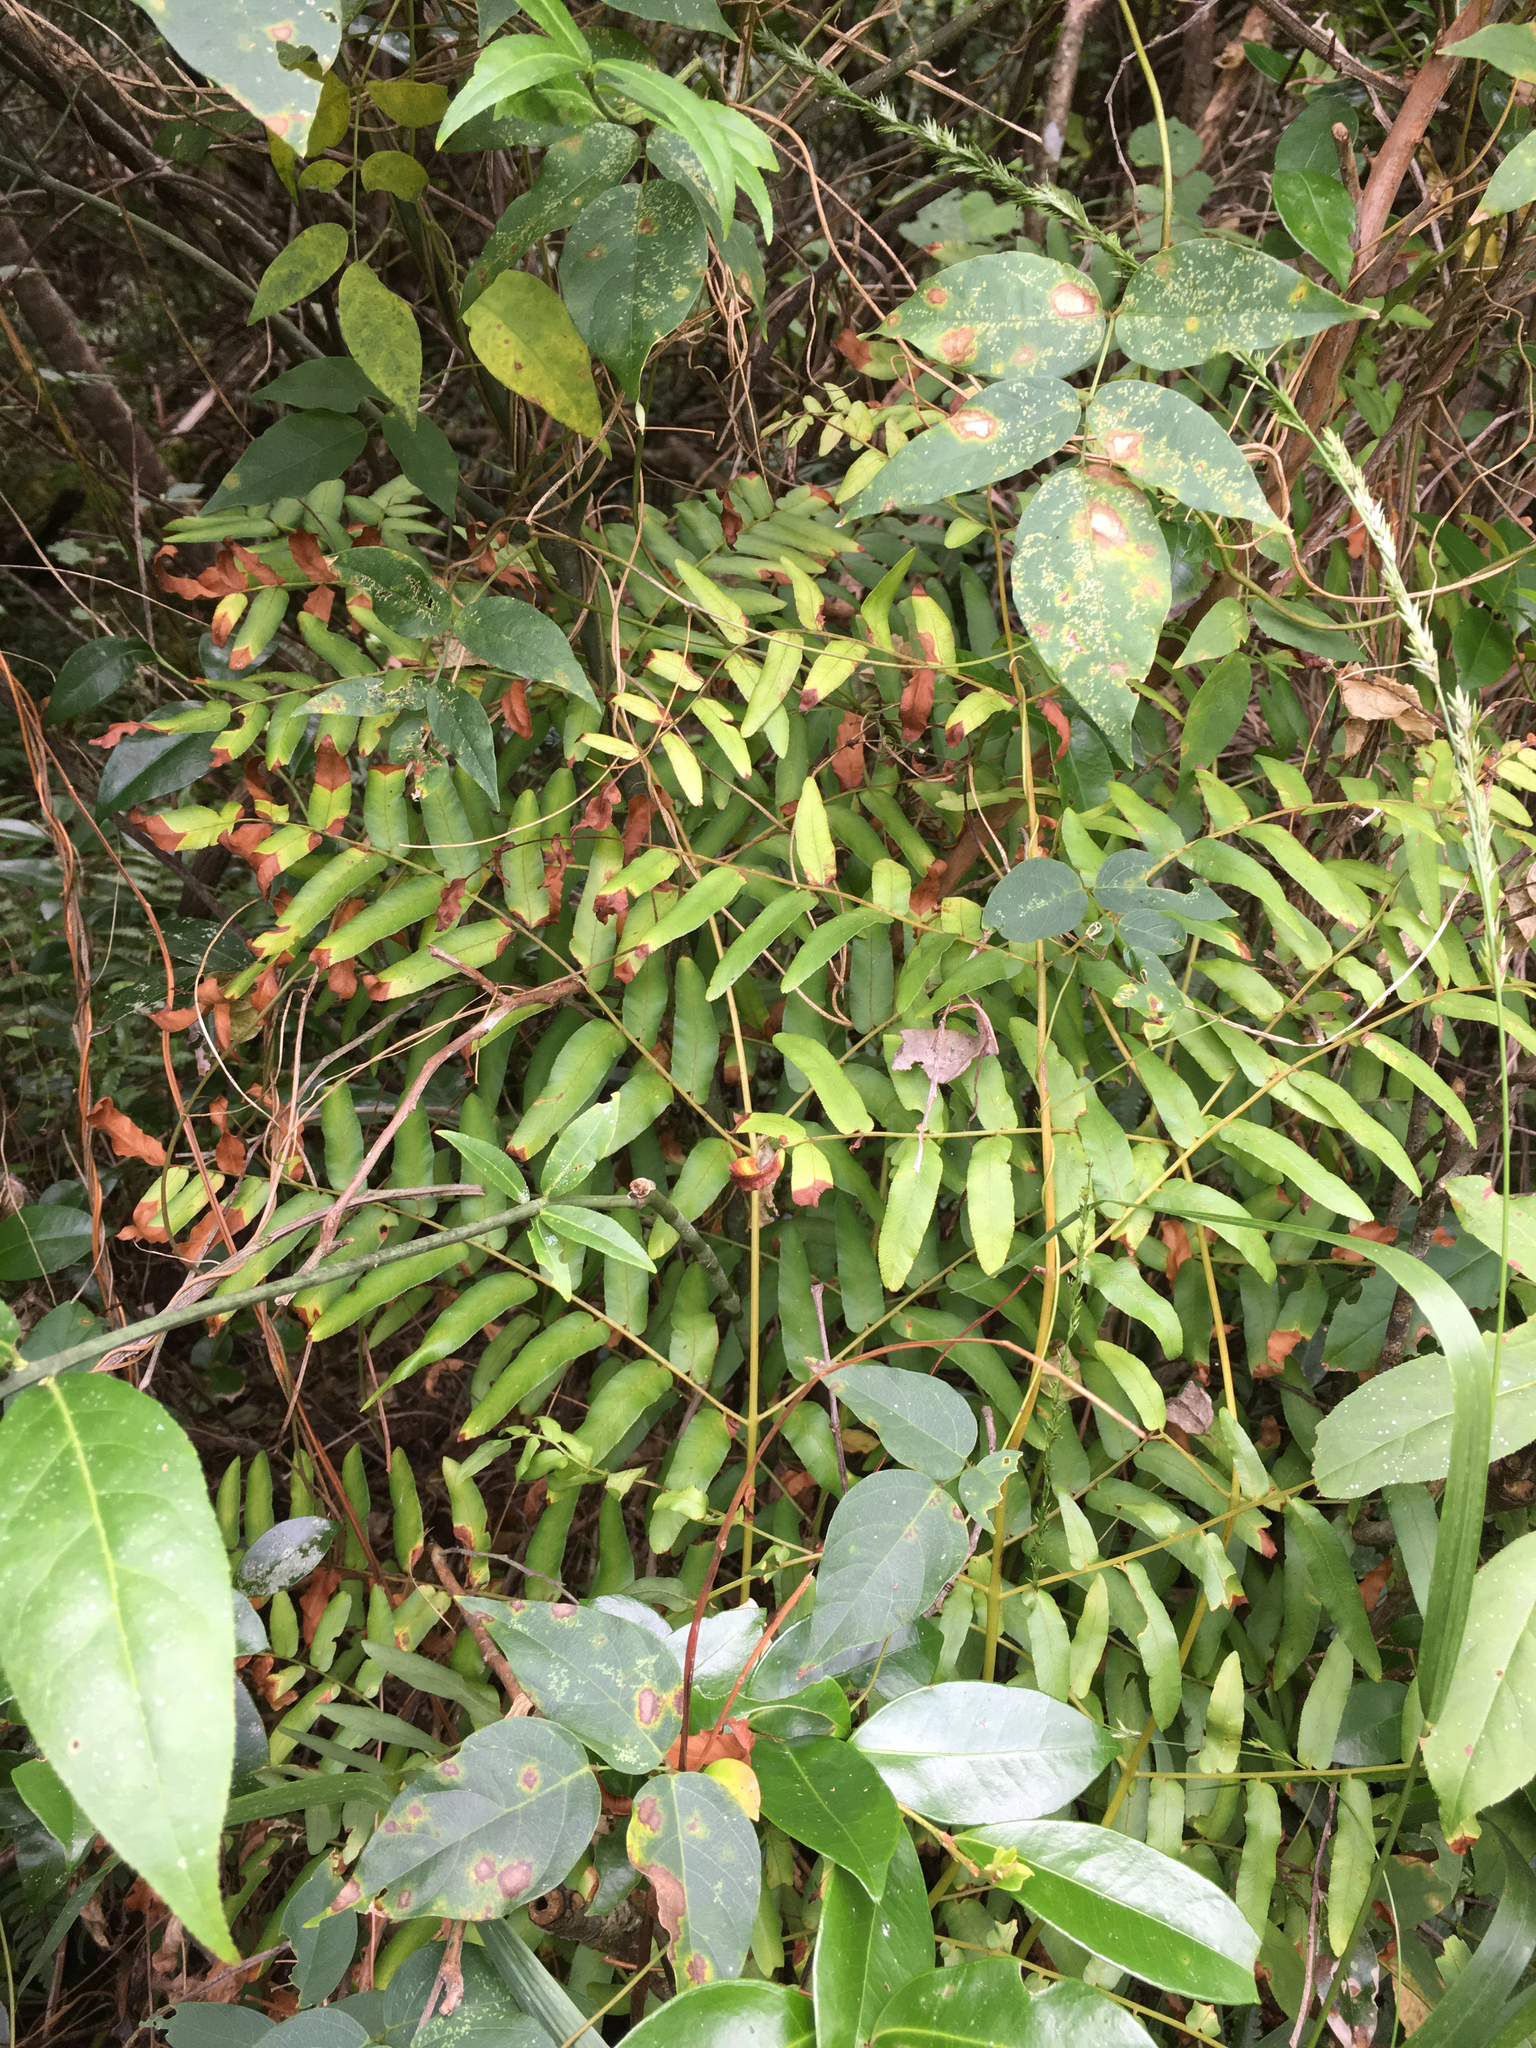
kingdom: Plantae
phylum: Tracheophyta
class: Polypodiopsida
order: Osmundales
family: Osmundaceae
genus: Osmunda
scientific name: Osmunda spectabilis
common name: American royal fern
